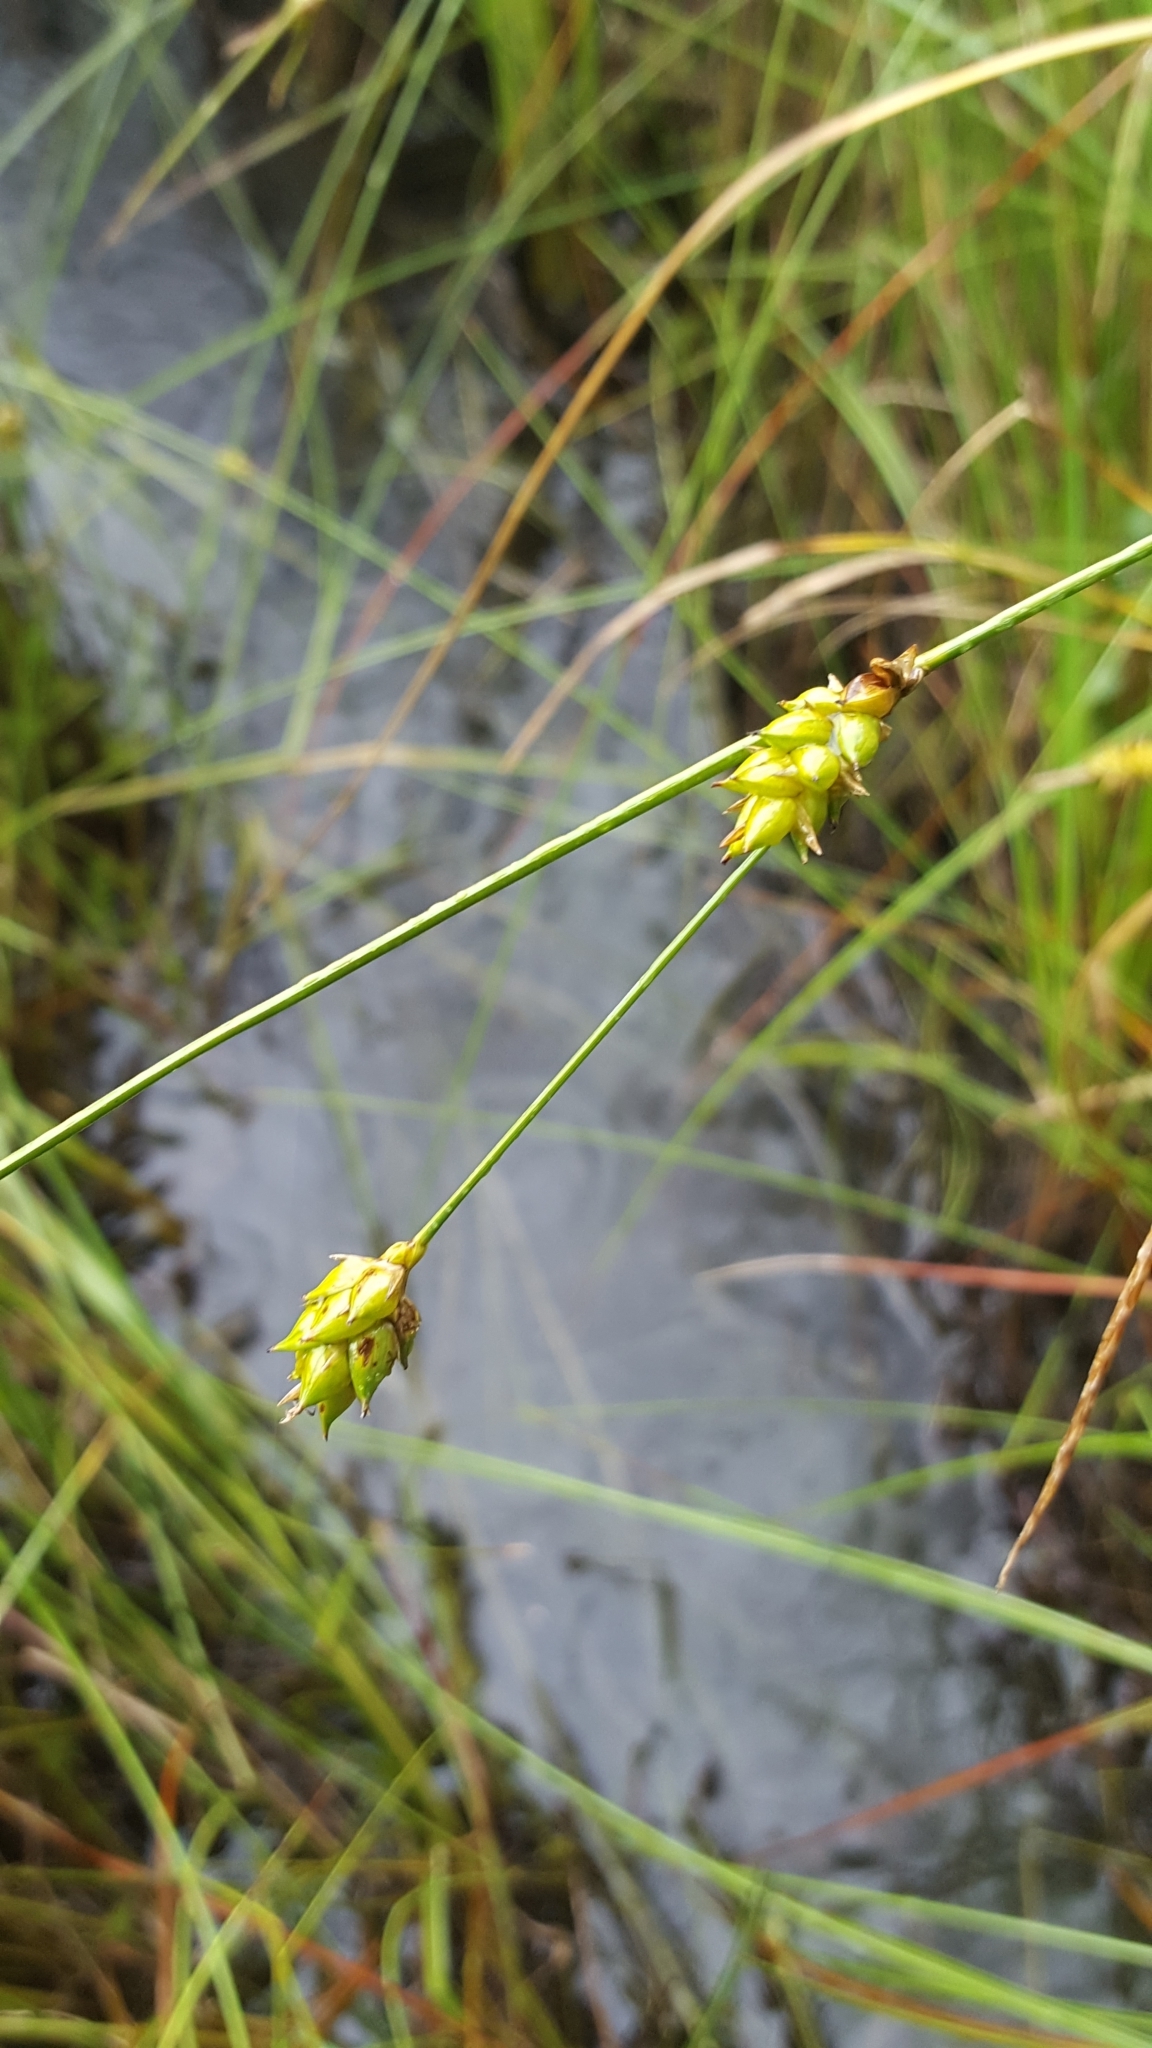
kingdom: Plantae
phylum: Tracheophyta
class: Liliopsida
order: Poales
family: Cyperaceae
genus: Carex
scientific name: Carex oligosperma
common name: Few-seed sedge
